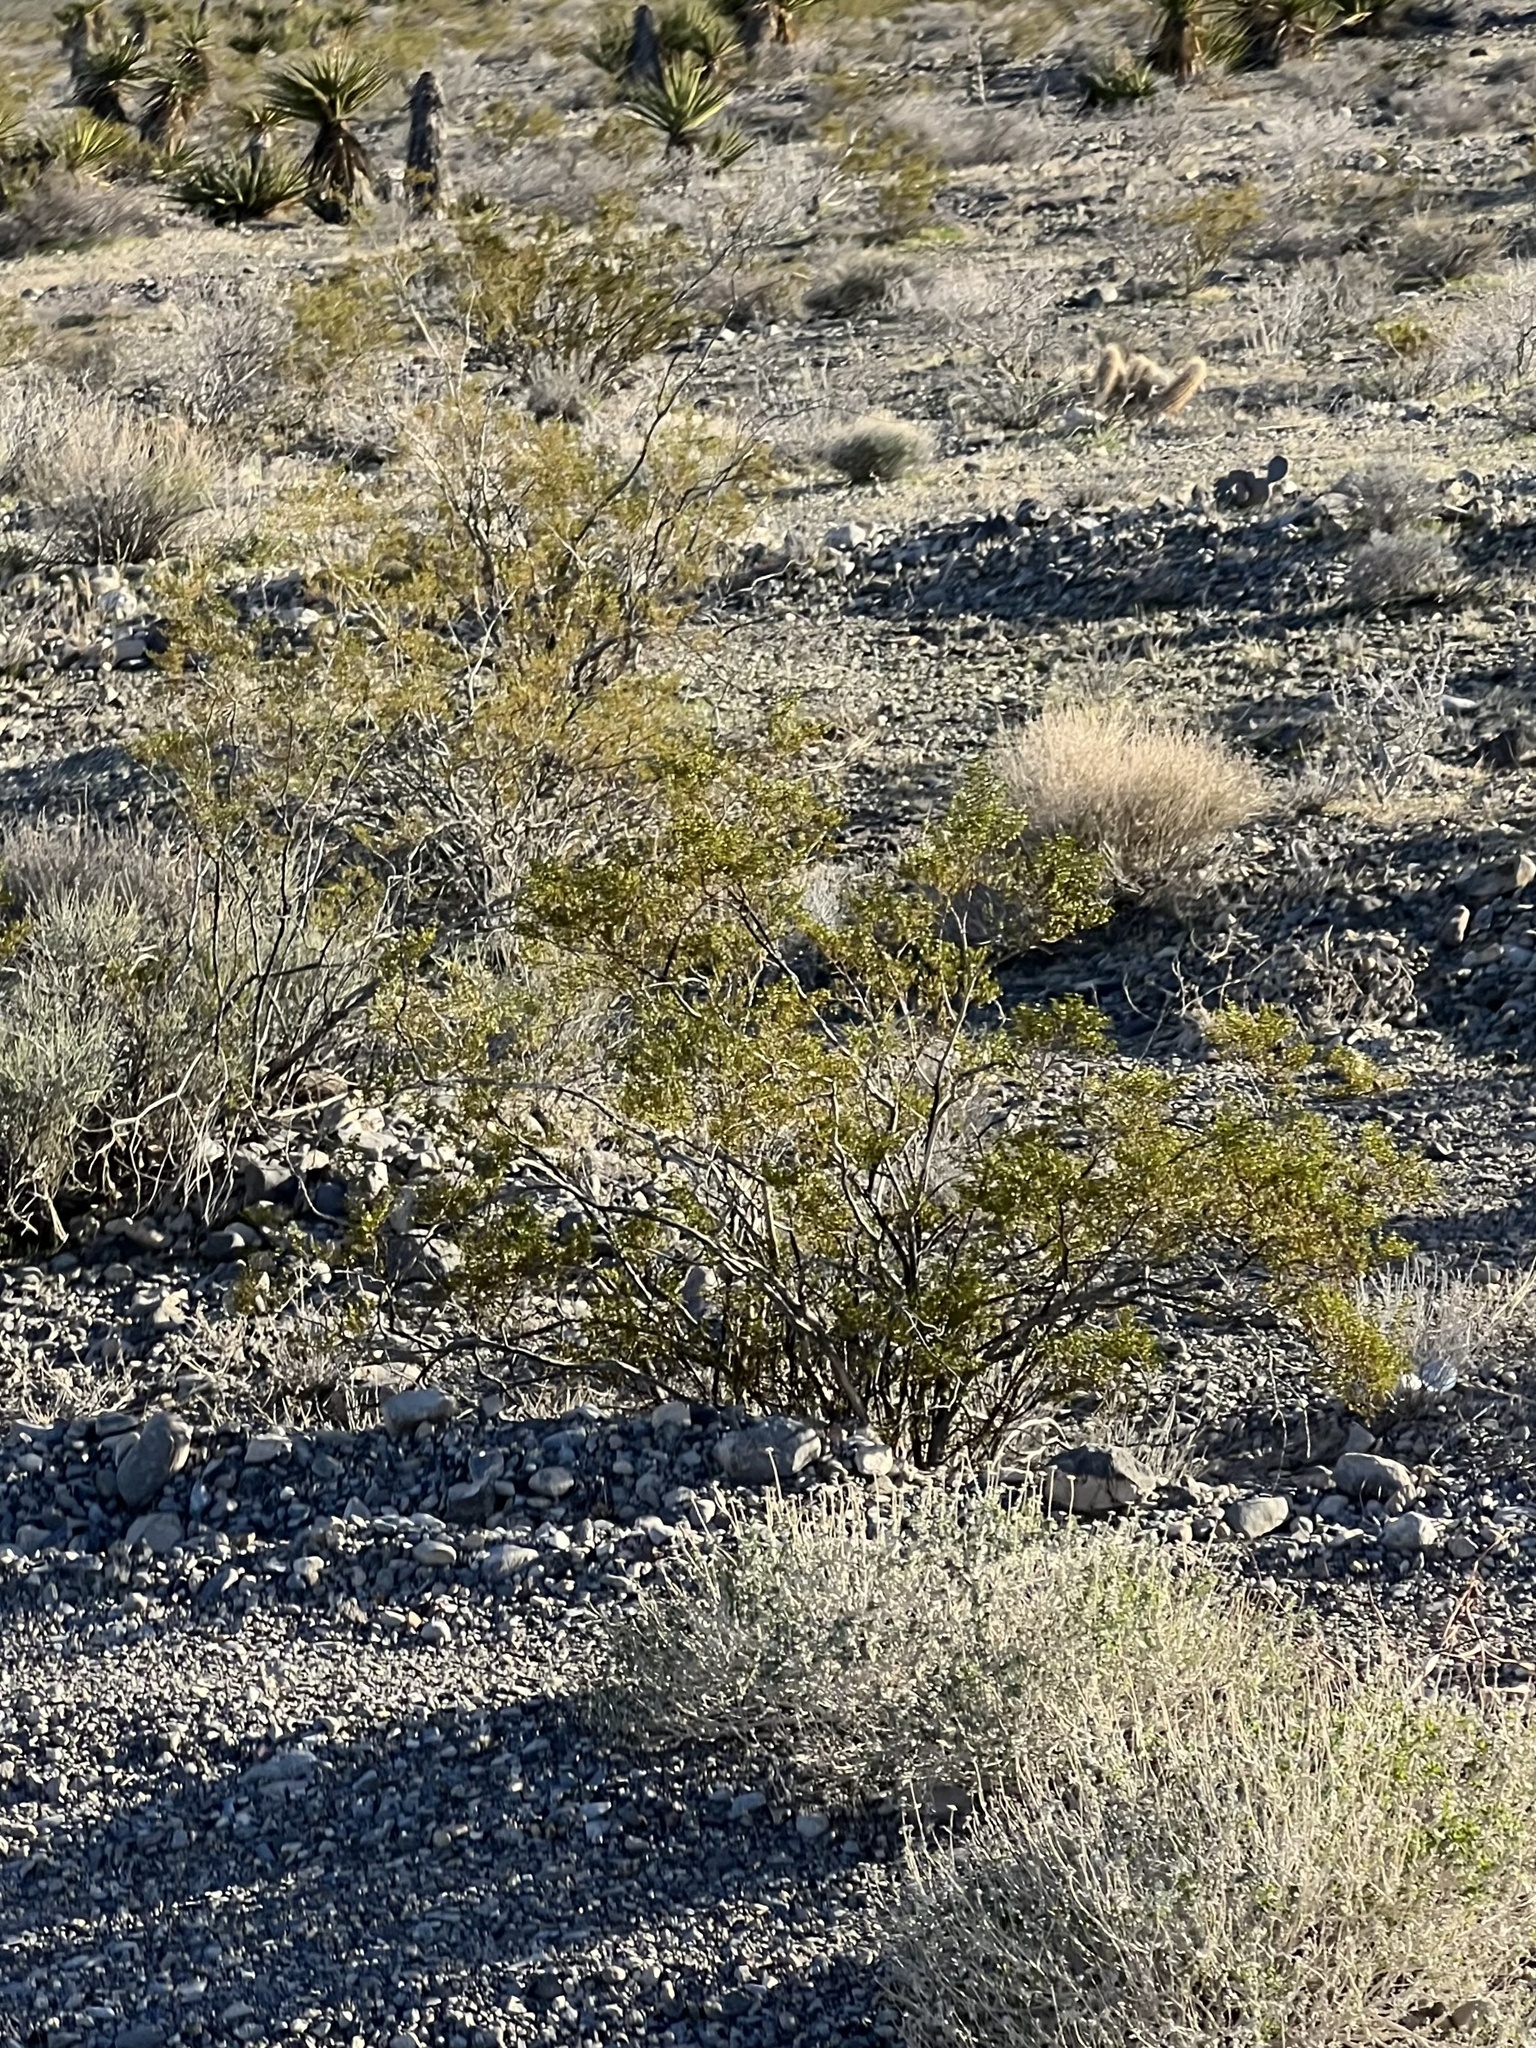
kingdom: Plantae
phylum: Tracheophyta
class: Magnoliopsida
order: Zygophyllales
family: Zygophyllaceae
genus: Larrea
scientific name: Larrea tridentata
